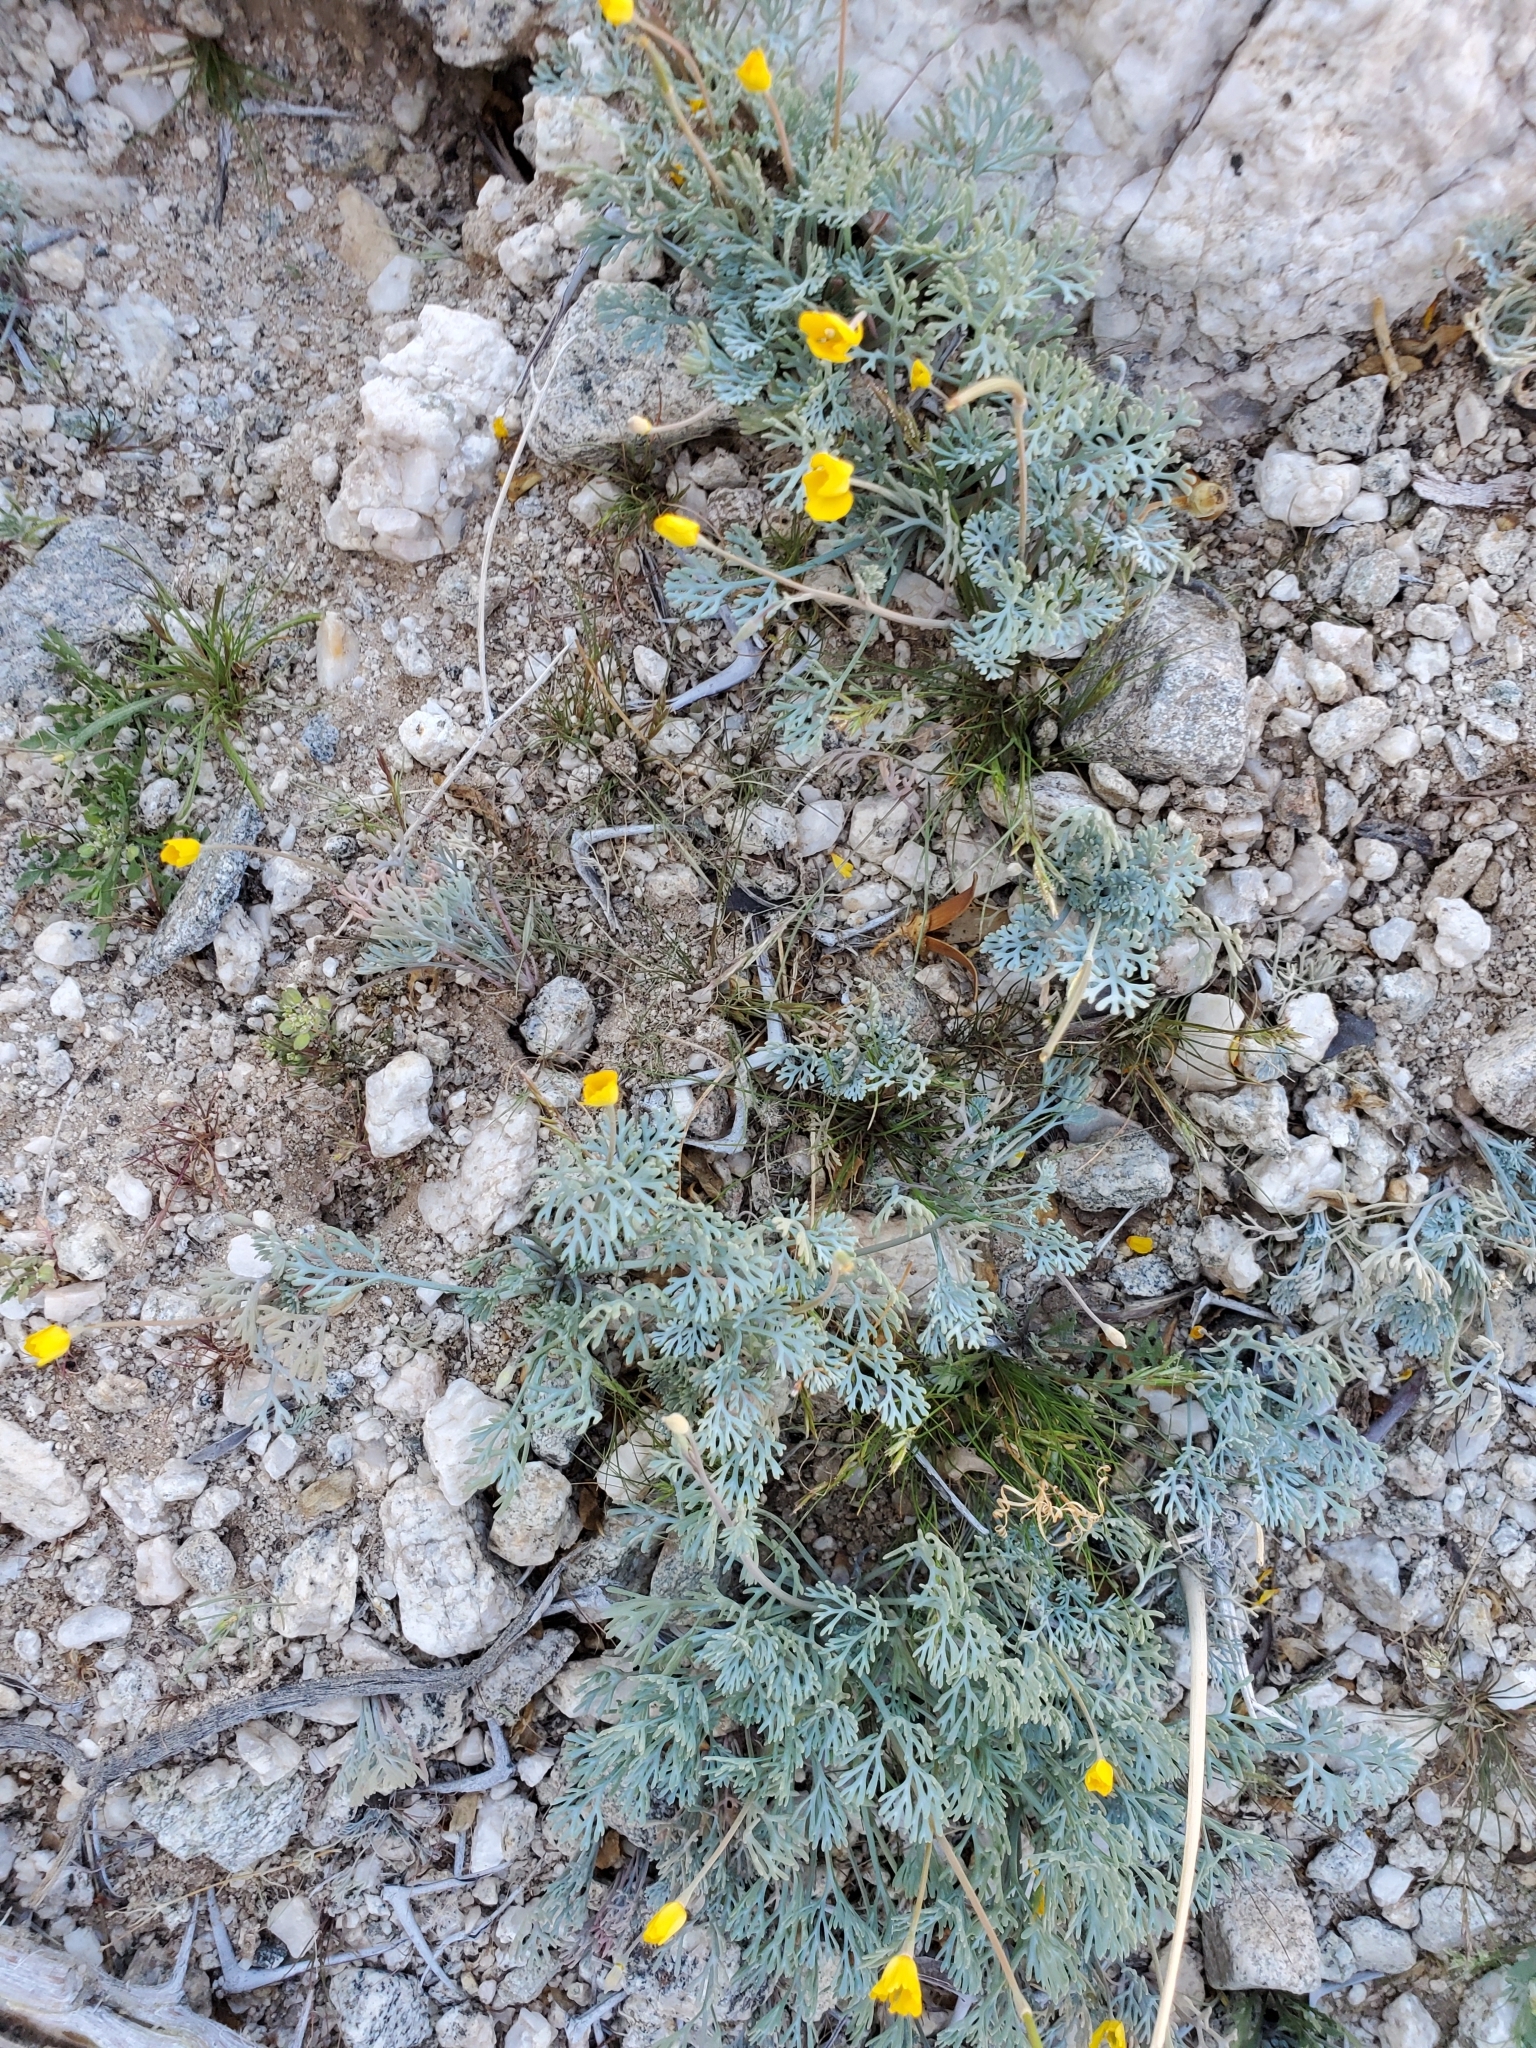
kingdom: Plantae
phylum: Tracheophyta
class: Magnoliopsida
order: Ranunculales
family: Papaveraceae
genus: Eschscholzia
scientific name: Eschscholzia minutiflora
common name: Small-flower california-poppy
